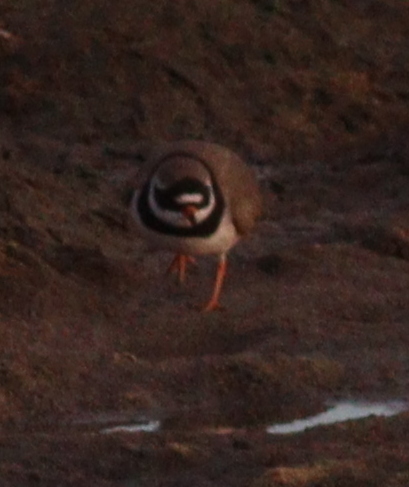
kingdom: Animalia
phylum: Chordata
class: Aves
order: Charadriiformes
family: Charadriidae
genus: Charadrius
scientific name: Charadrius hiaticula
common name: Common ringed plover
